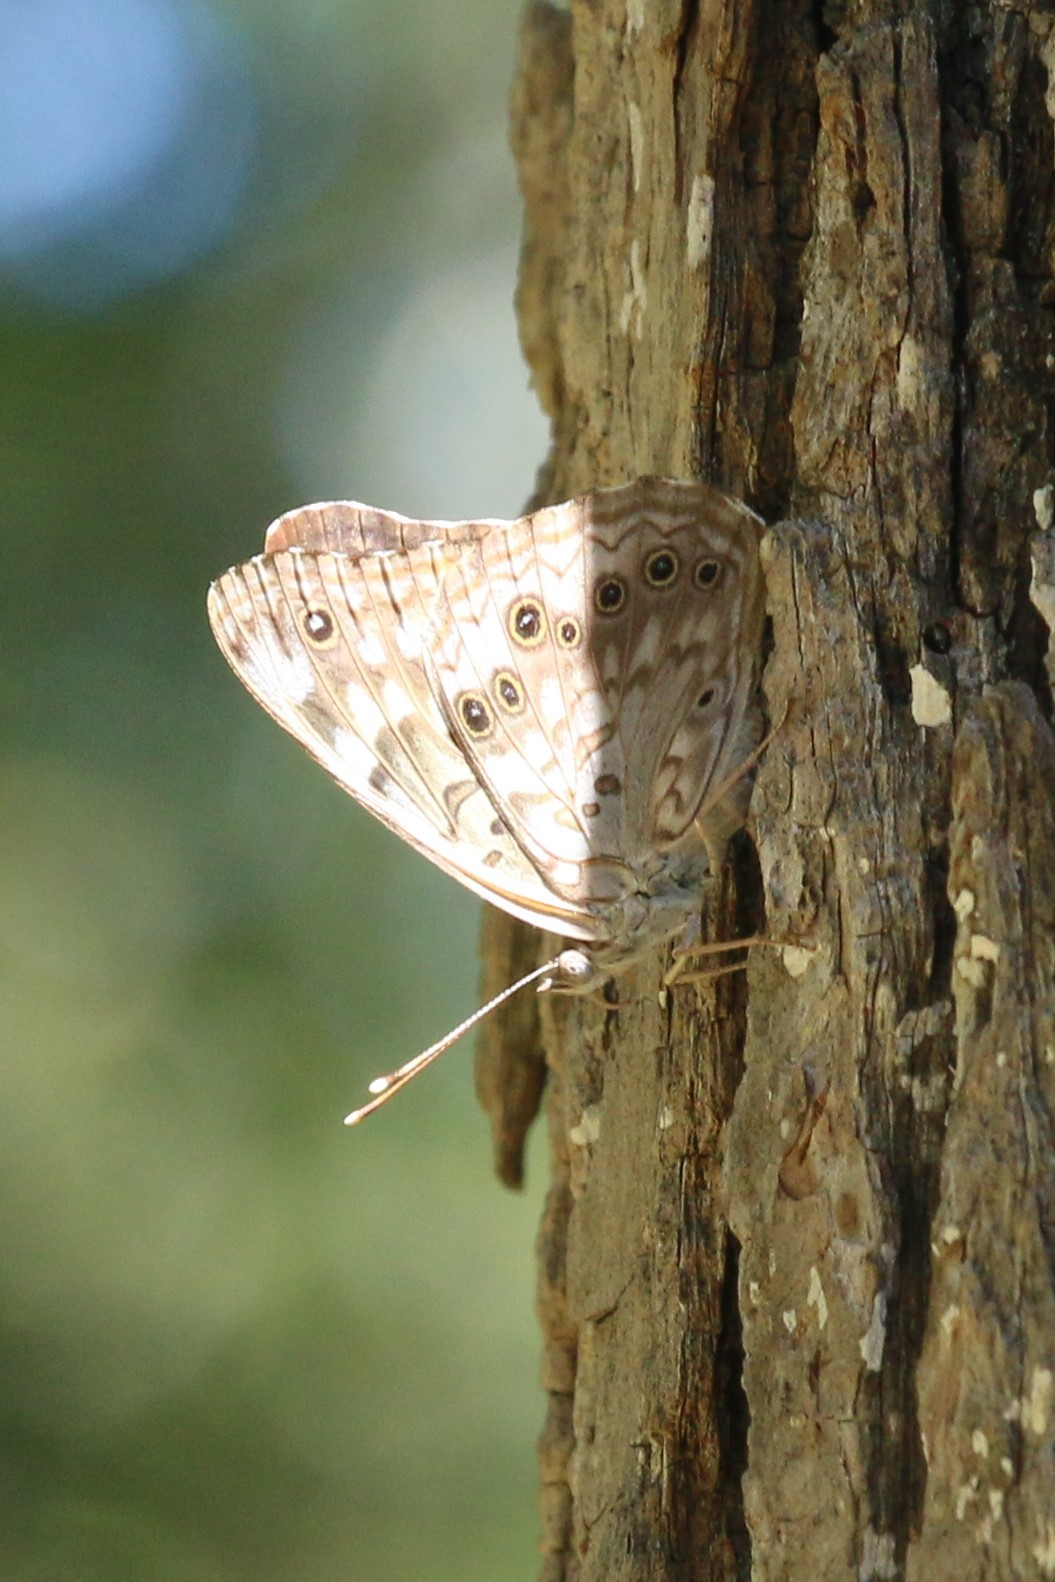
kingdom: Animalia
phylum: Arthropoda
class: Insecta
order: Lepidoptera
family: Nymphalidae
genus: Asterocampa
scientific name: Asterocampa celtis
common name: Hackberry emperor
